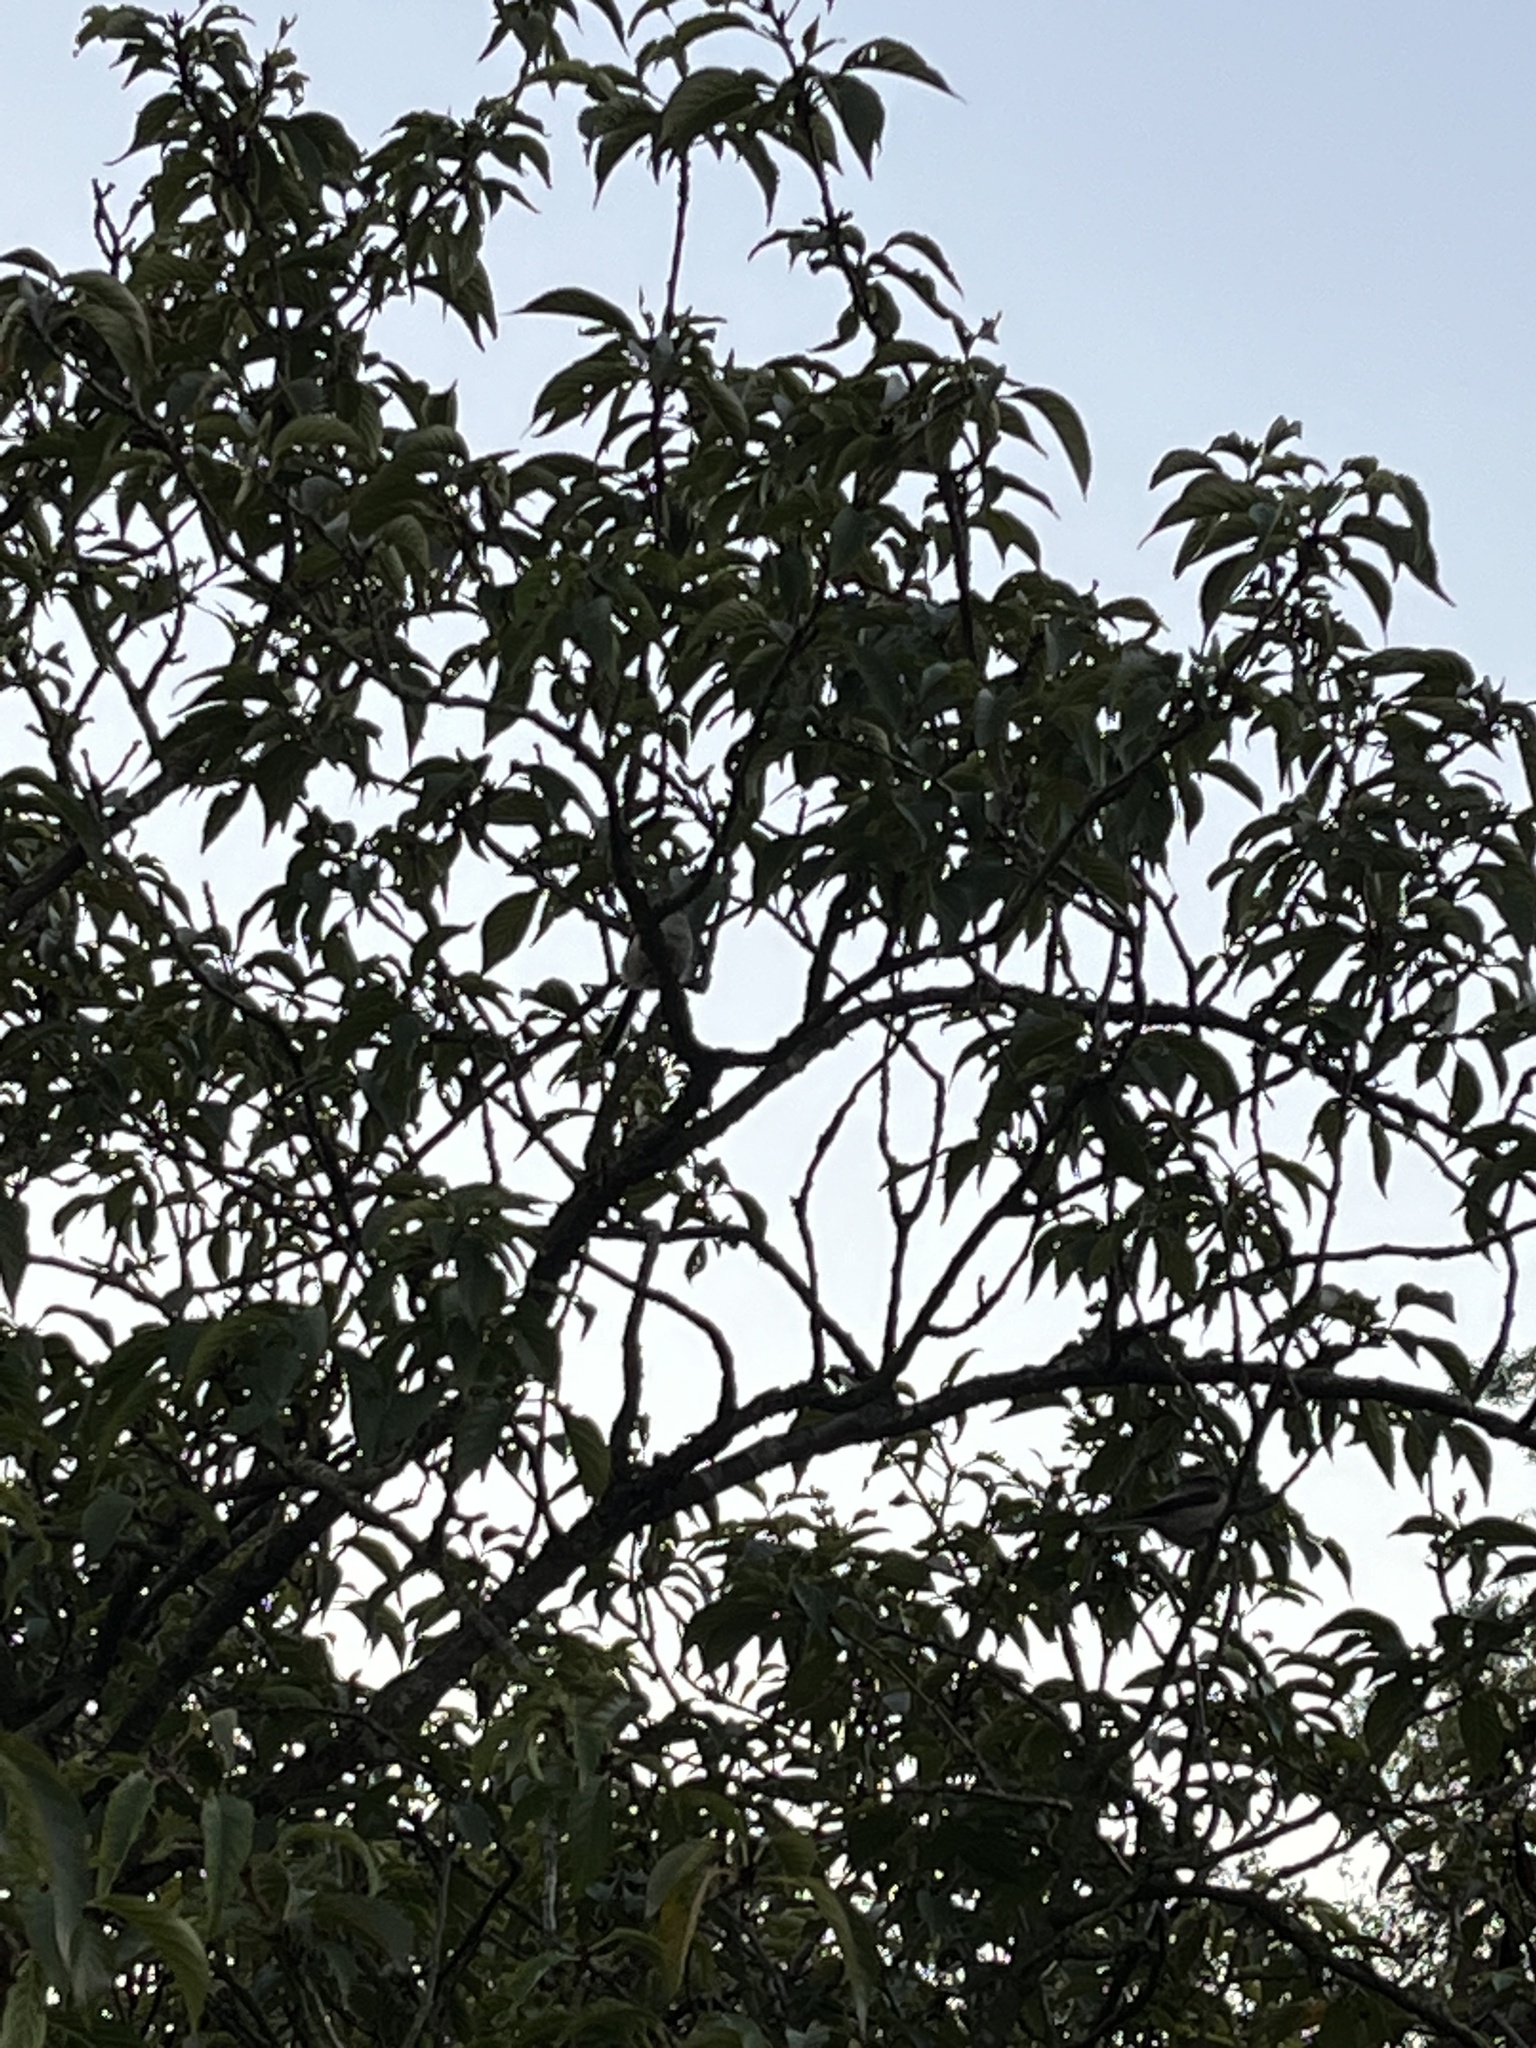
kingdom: Animalia
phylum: Chordata
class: Aves
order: Passeriformes
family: Aegithalidae
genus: Aegithalos
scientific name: Aegithalos caudatus
